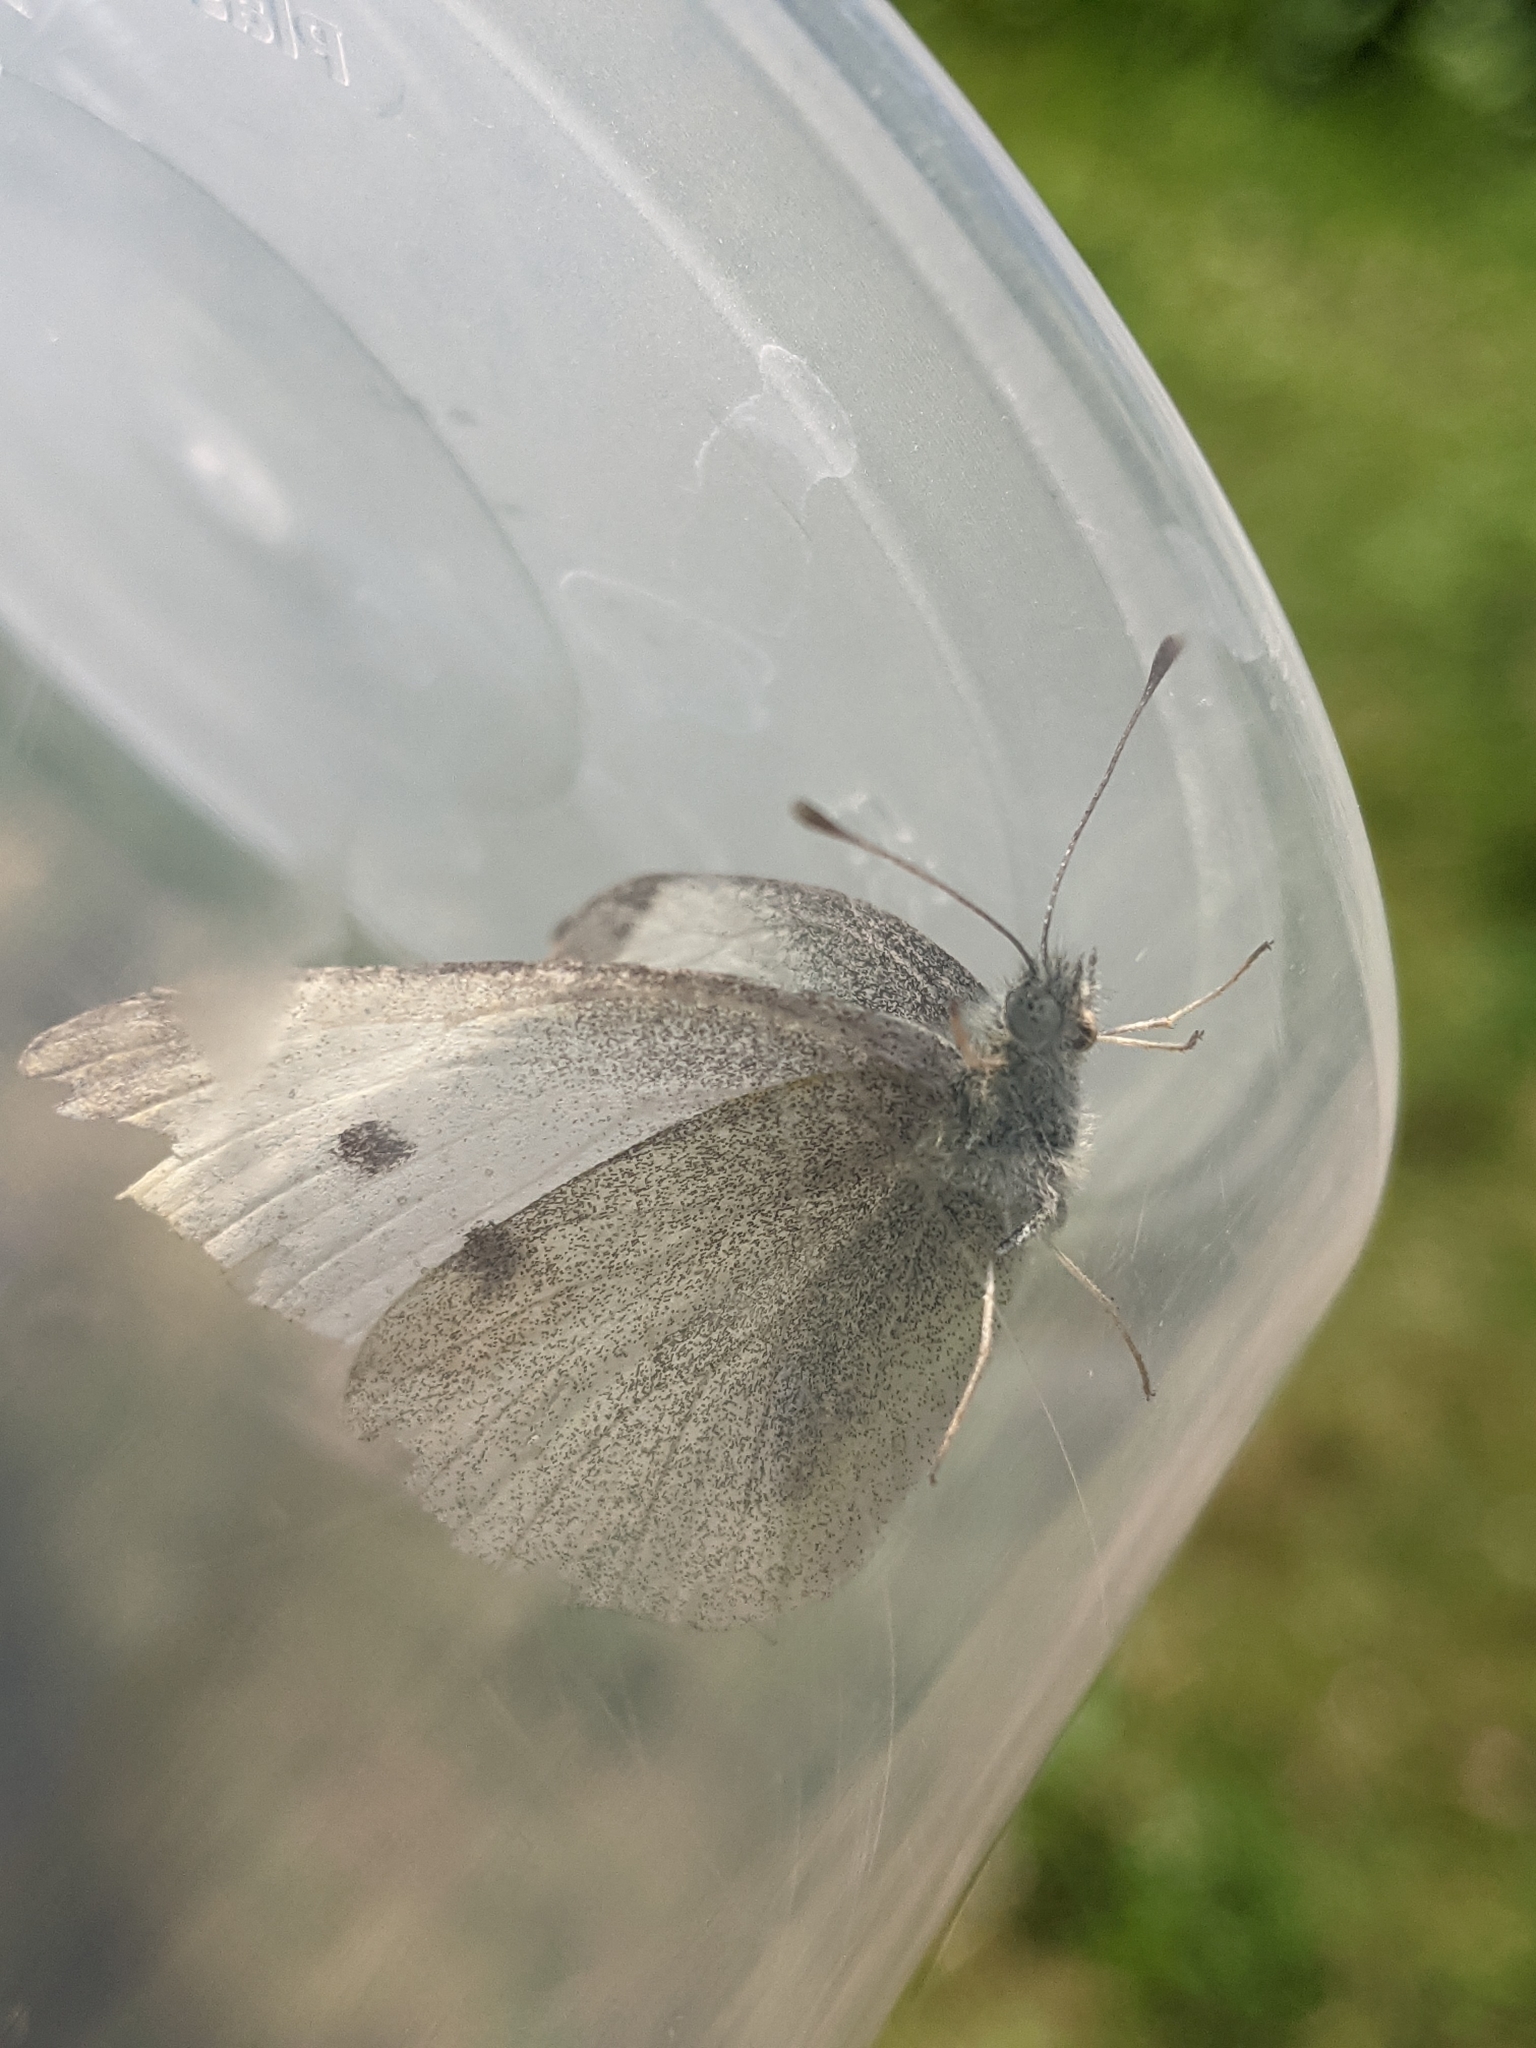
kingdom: Animalia
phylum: Arthropoda
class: Insecta
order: Lepidoptera
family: Pieridae
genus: Pieris
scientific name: Pieris rapae
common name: Small white
